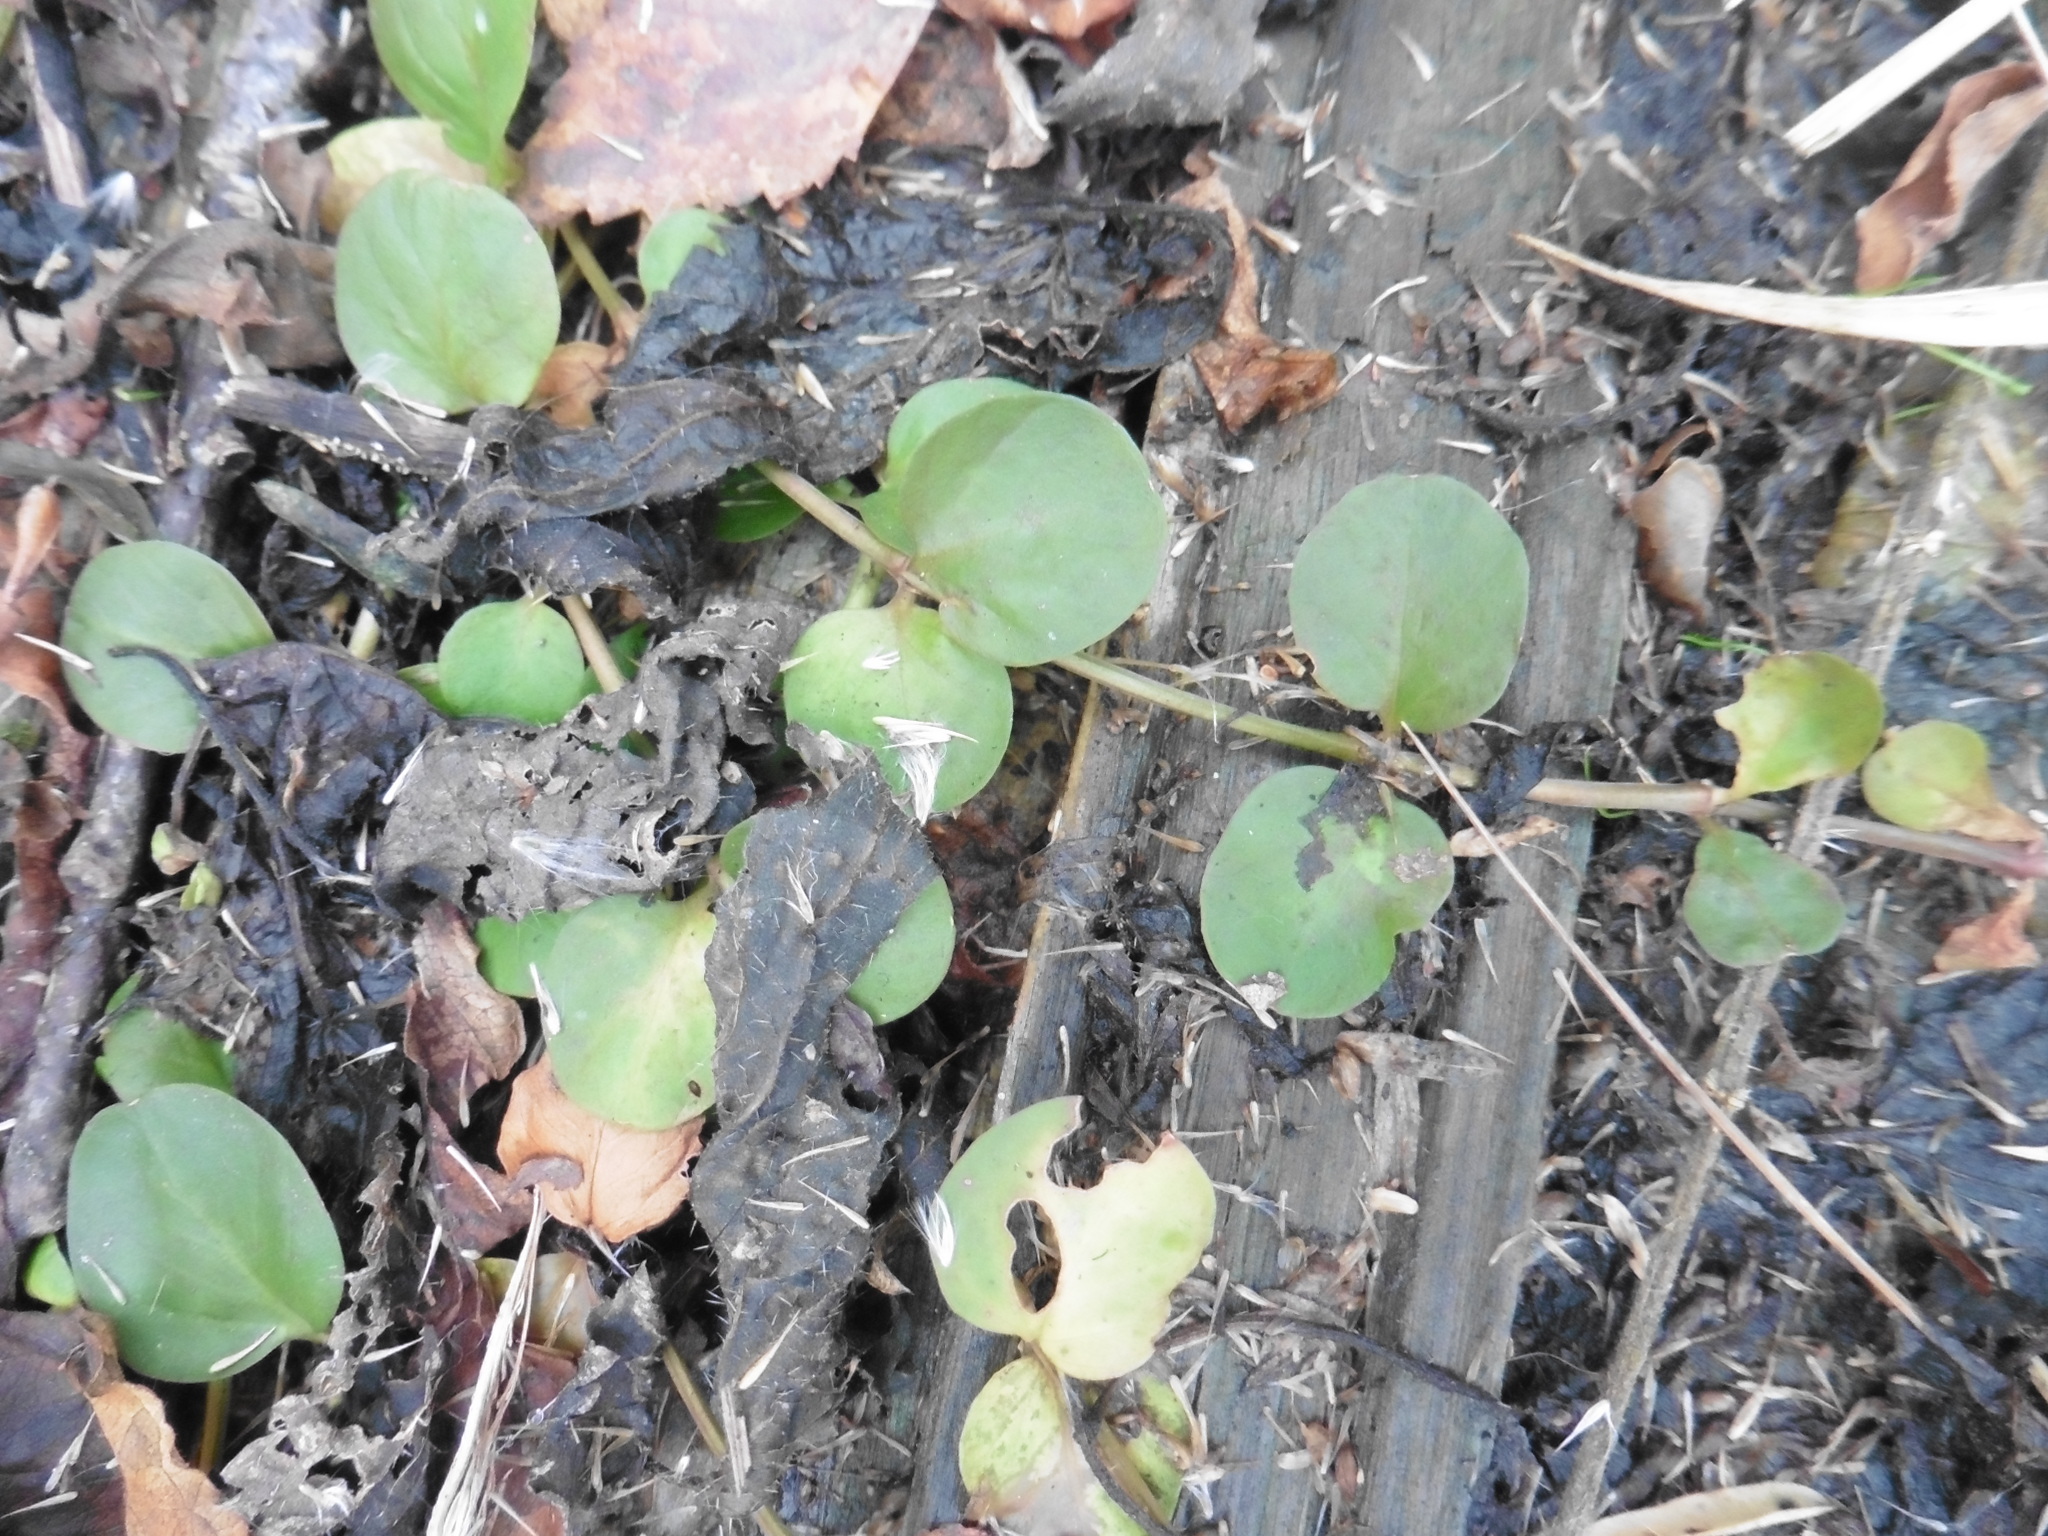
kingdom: Plantae
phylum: Tracheophyta
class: Magnoliopsida
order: Ericales
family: Primulaceae
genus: Lysimachia
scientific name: Lysimachia nummularia
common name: Moneywort
